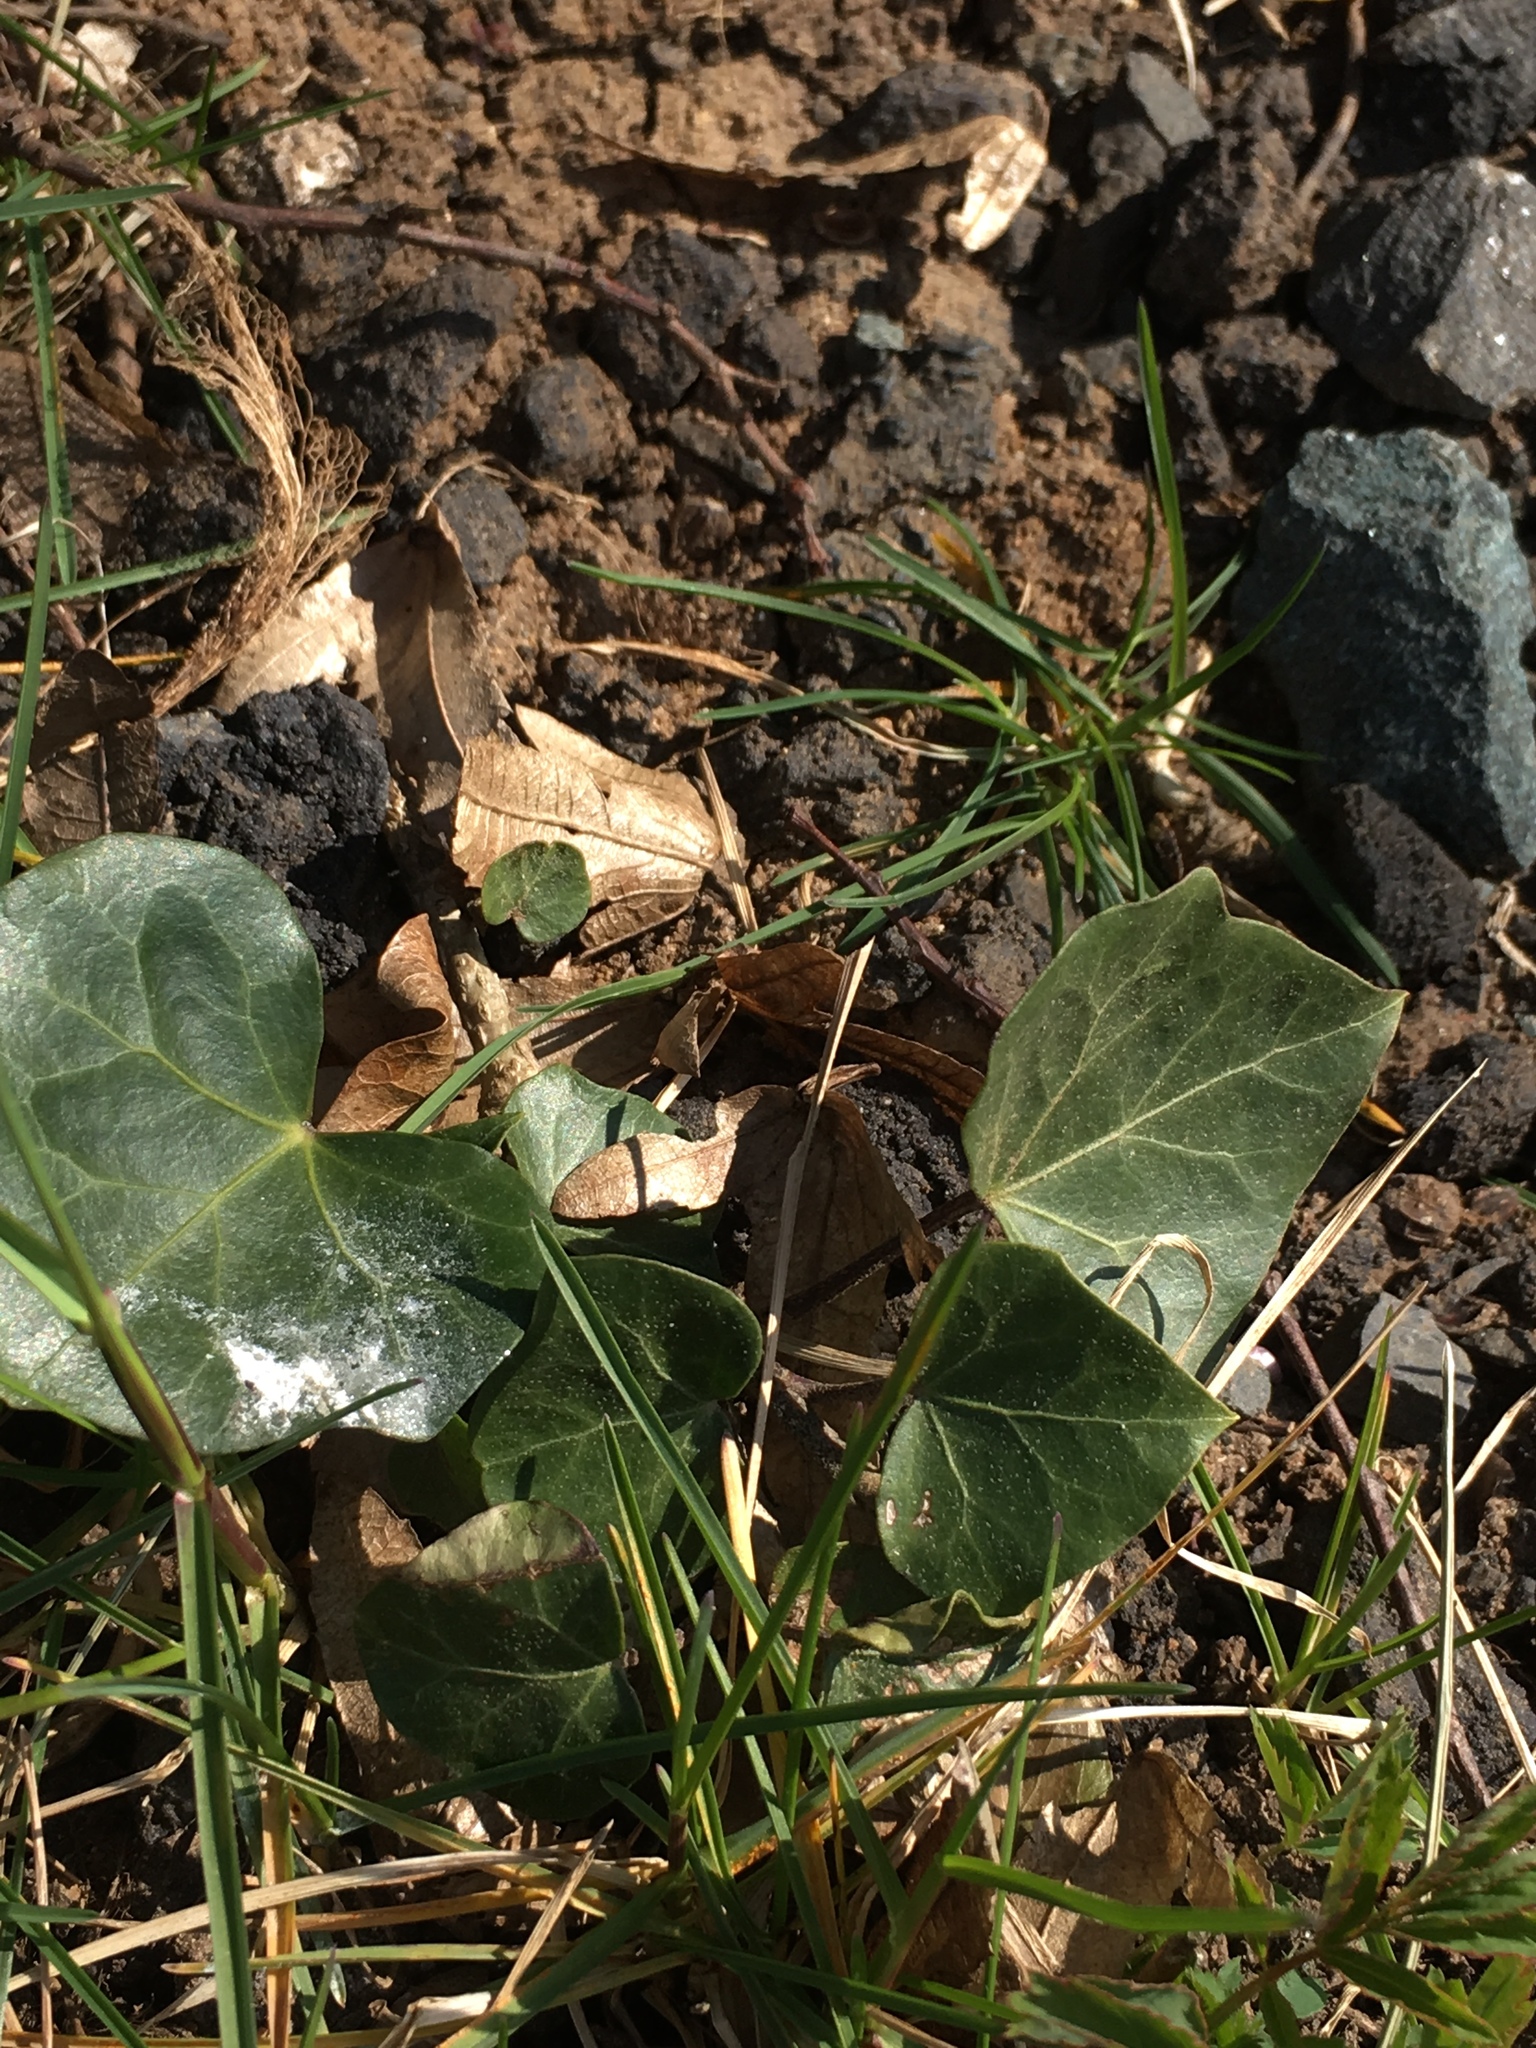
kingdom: Plantae
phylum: Tracheophyta
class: Magnoliopsida
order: Apiales
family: Araliaceae
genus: Hedera
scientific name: Hedera helix
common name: Ivy
